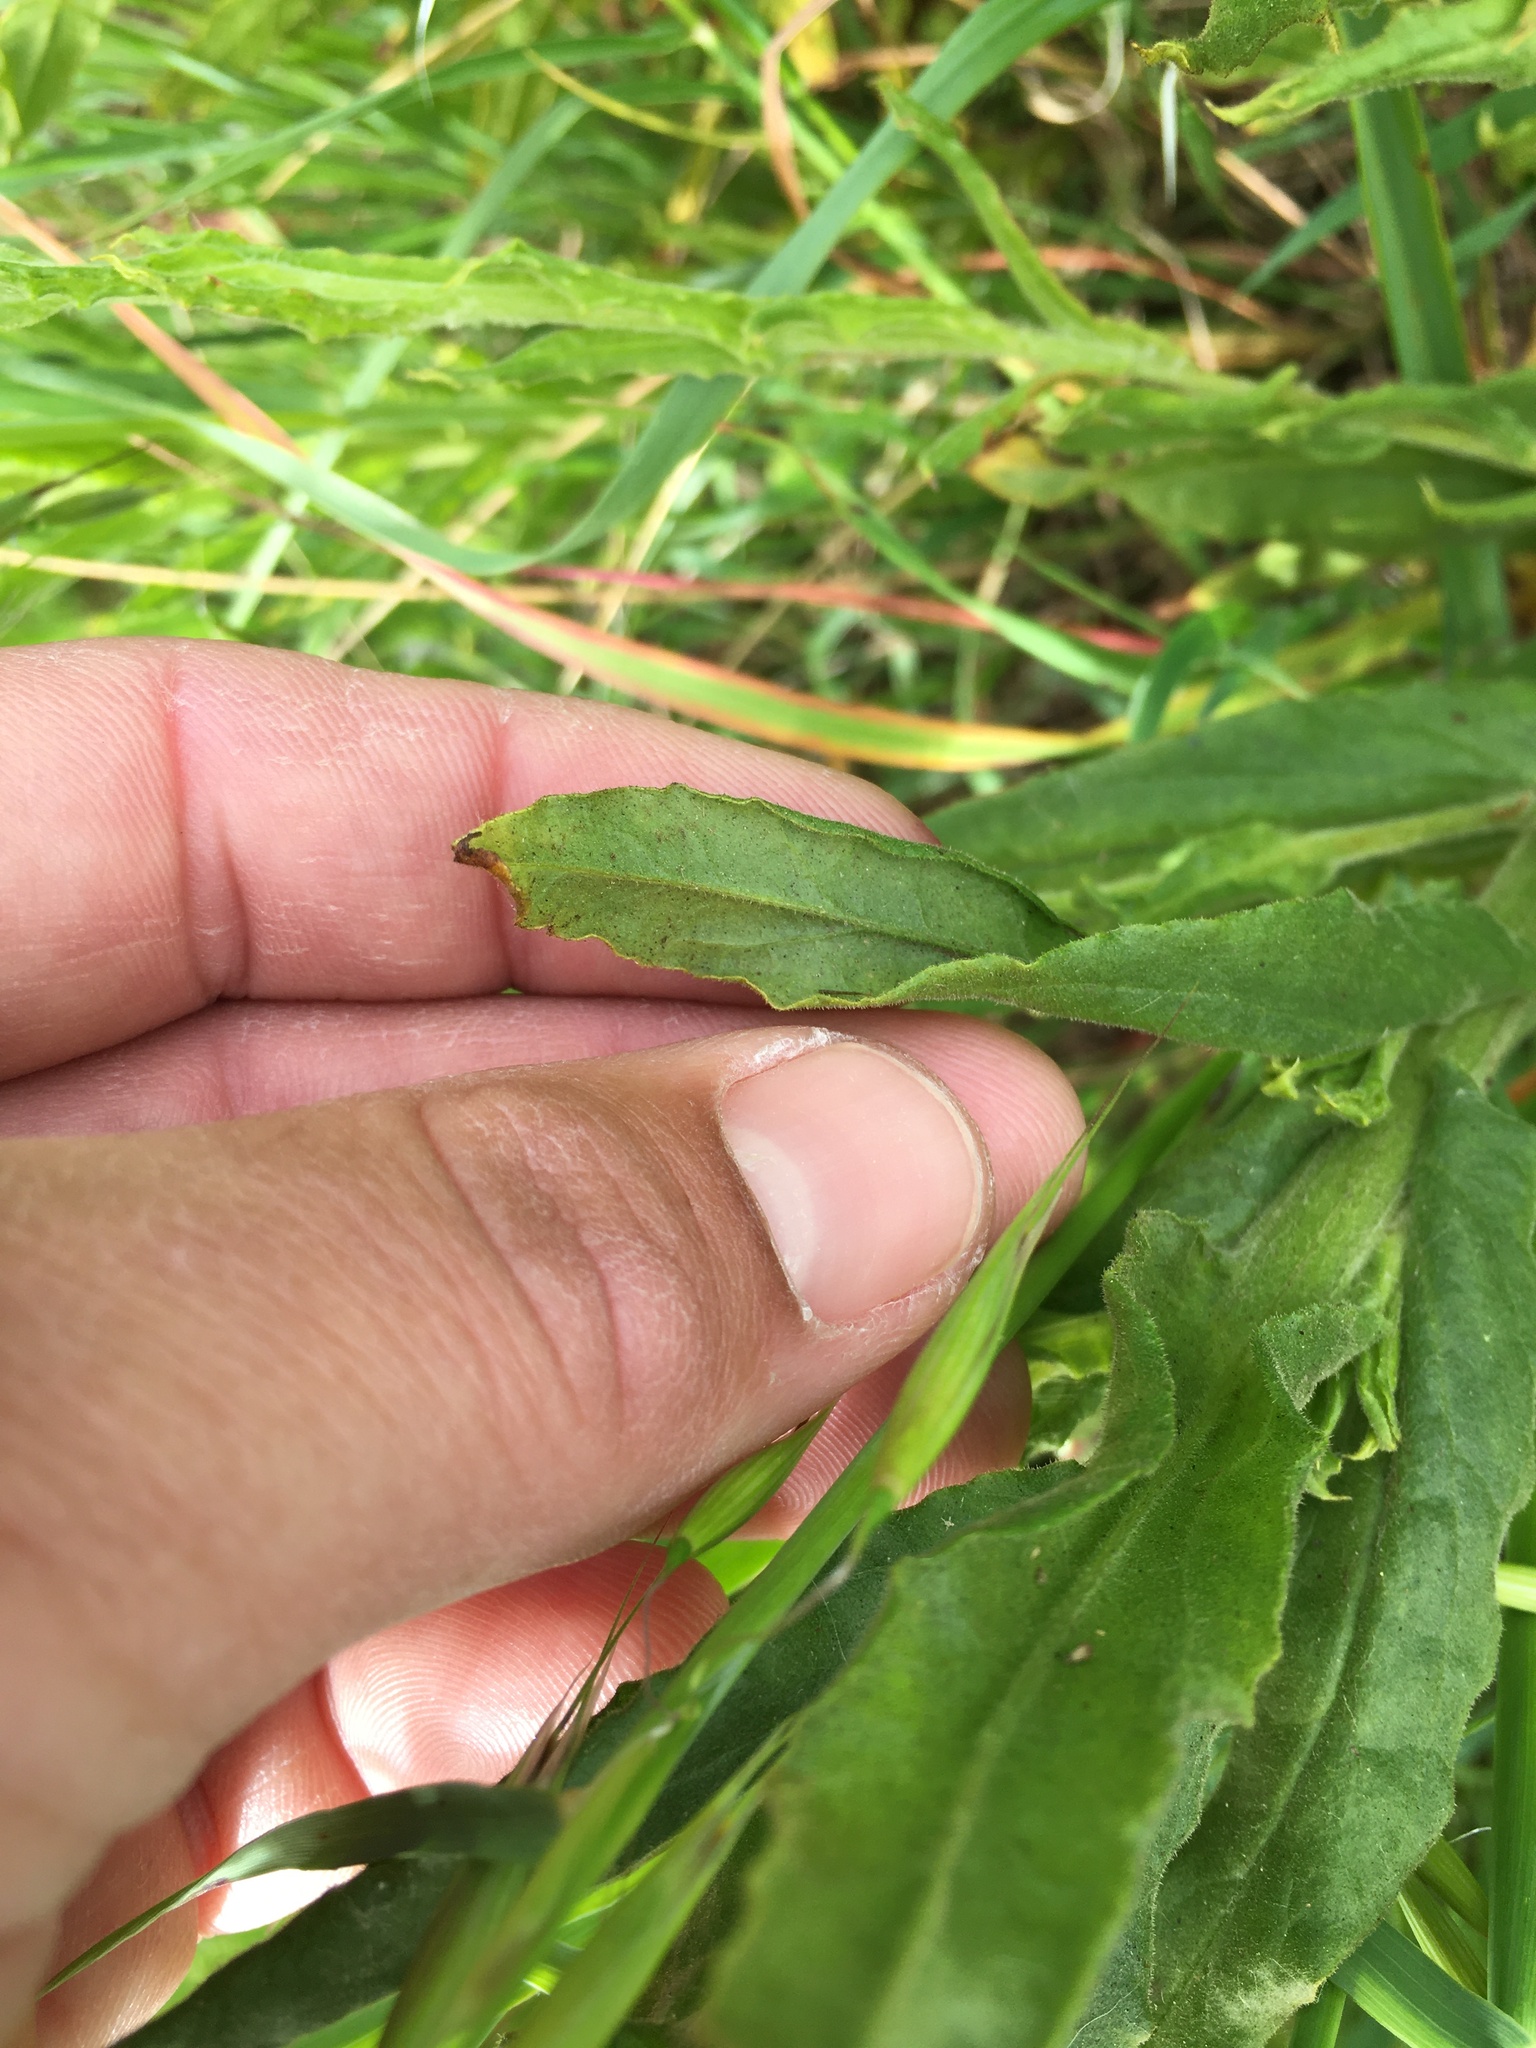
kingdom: Plantae
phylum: Tracheophyta
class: Magnoliopsida
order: Asterales
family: Asteraceae
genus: Pseudognaphalium
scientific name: Pseudognaphalium californicum
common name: California rabbit-tobacco
